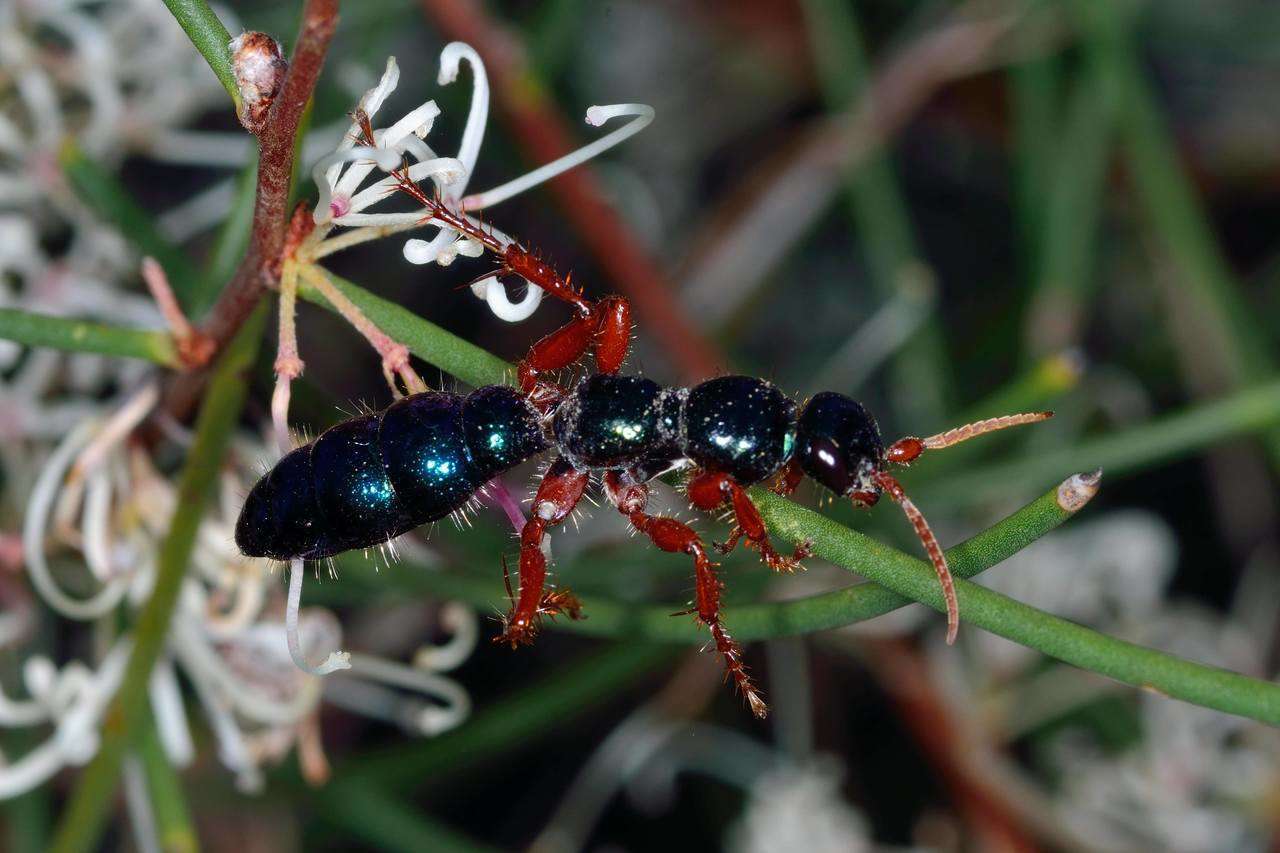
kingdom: Animalia
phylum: Arthropoda
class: Insecta
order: Hymenoptera
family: Tiphiidae
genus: Diamma
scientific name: Diamma
